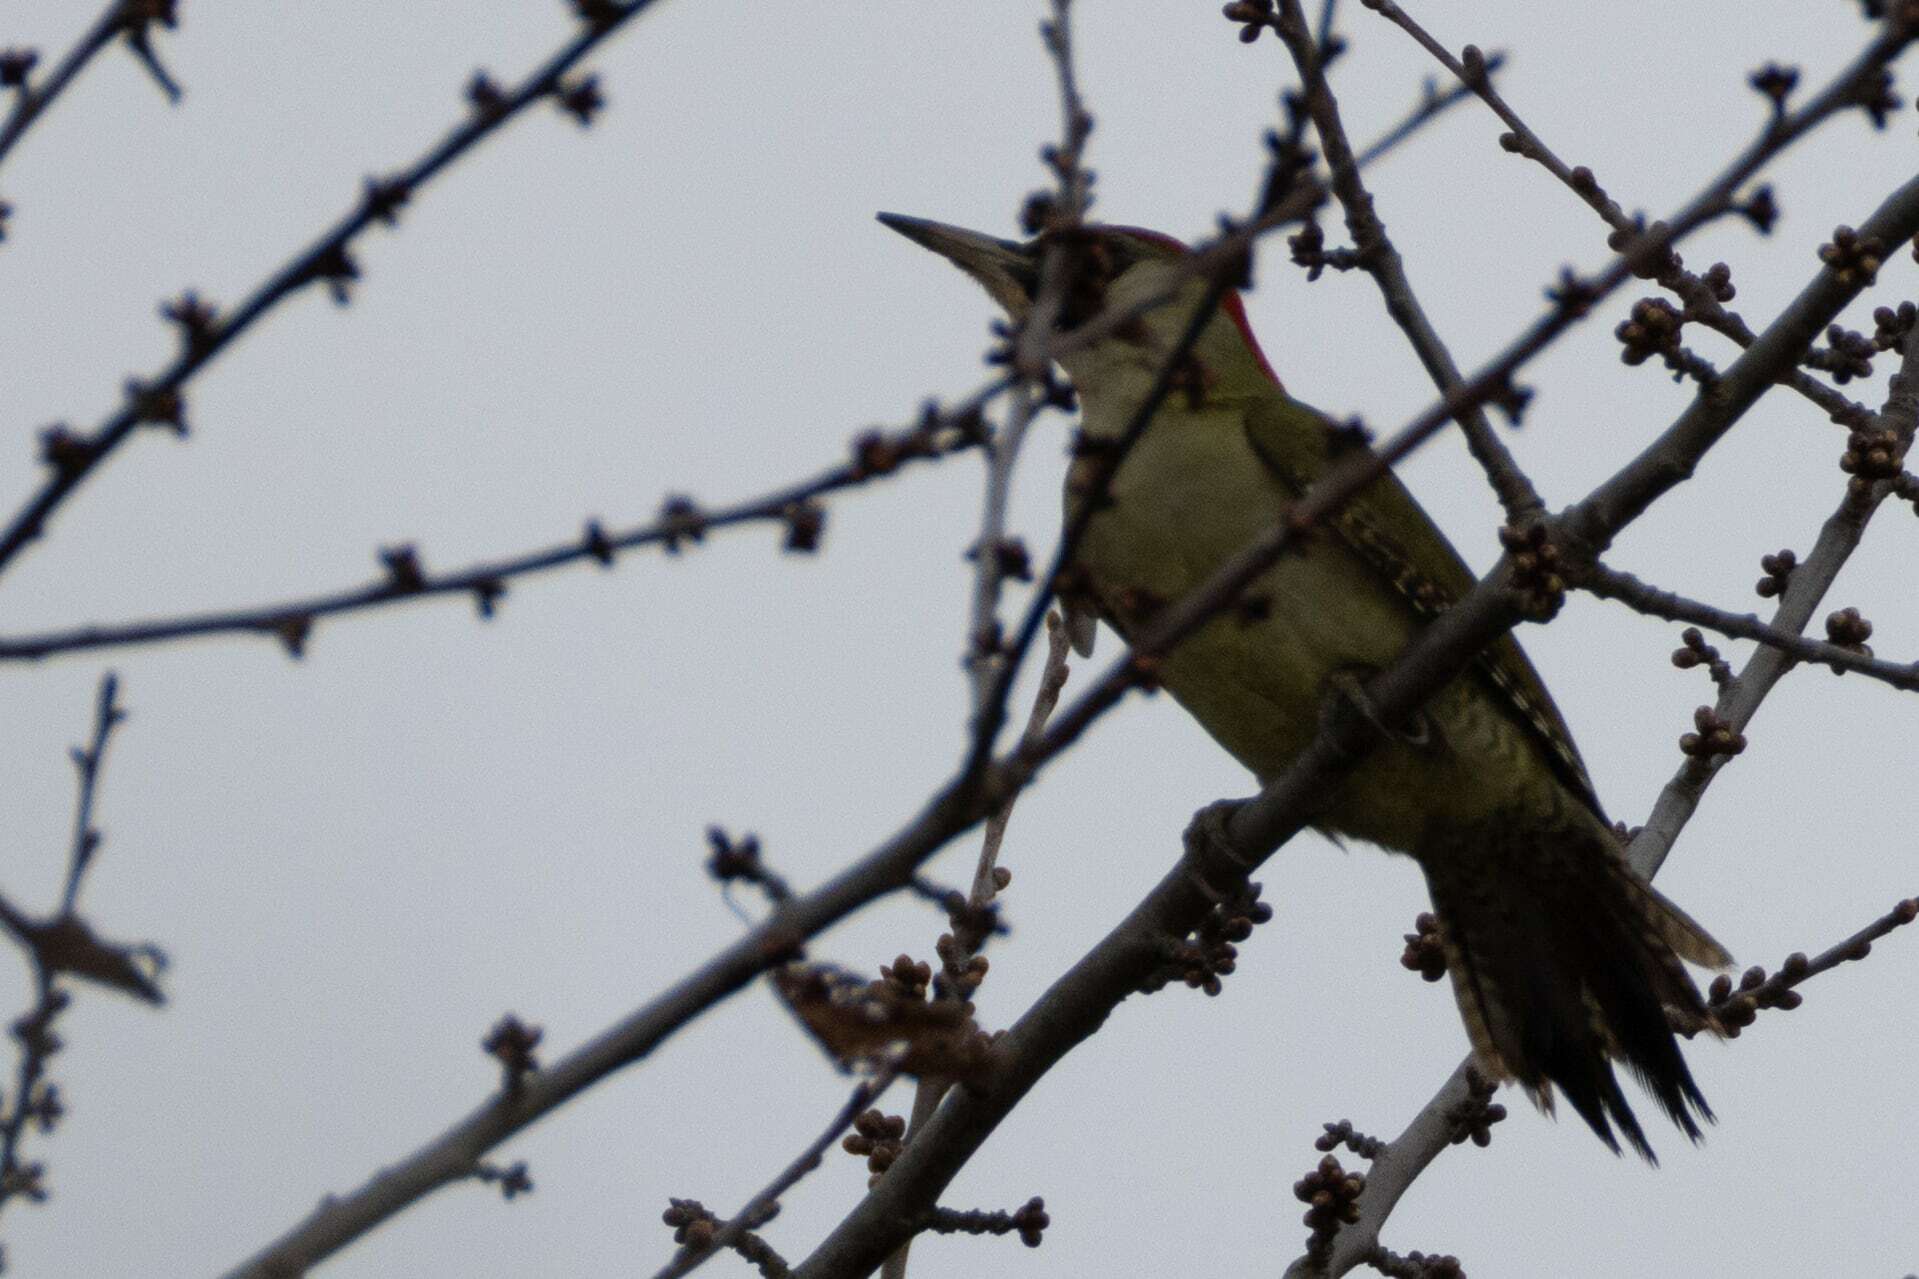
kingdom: Animalia
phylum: Chordata
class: Aves
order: Piciformes
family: Picidae
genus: Picus
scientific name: Picus viridis
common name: European green woodpecker
